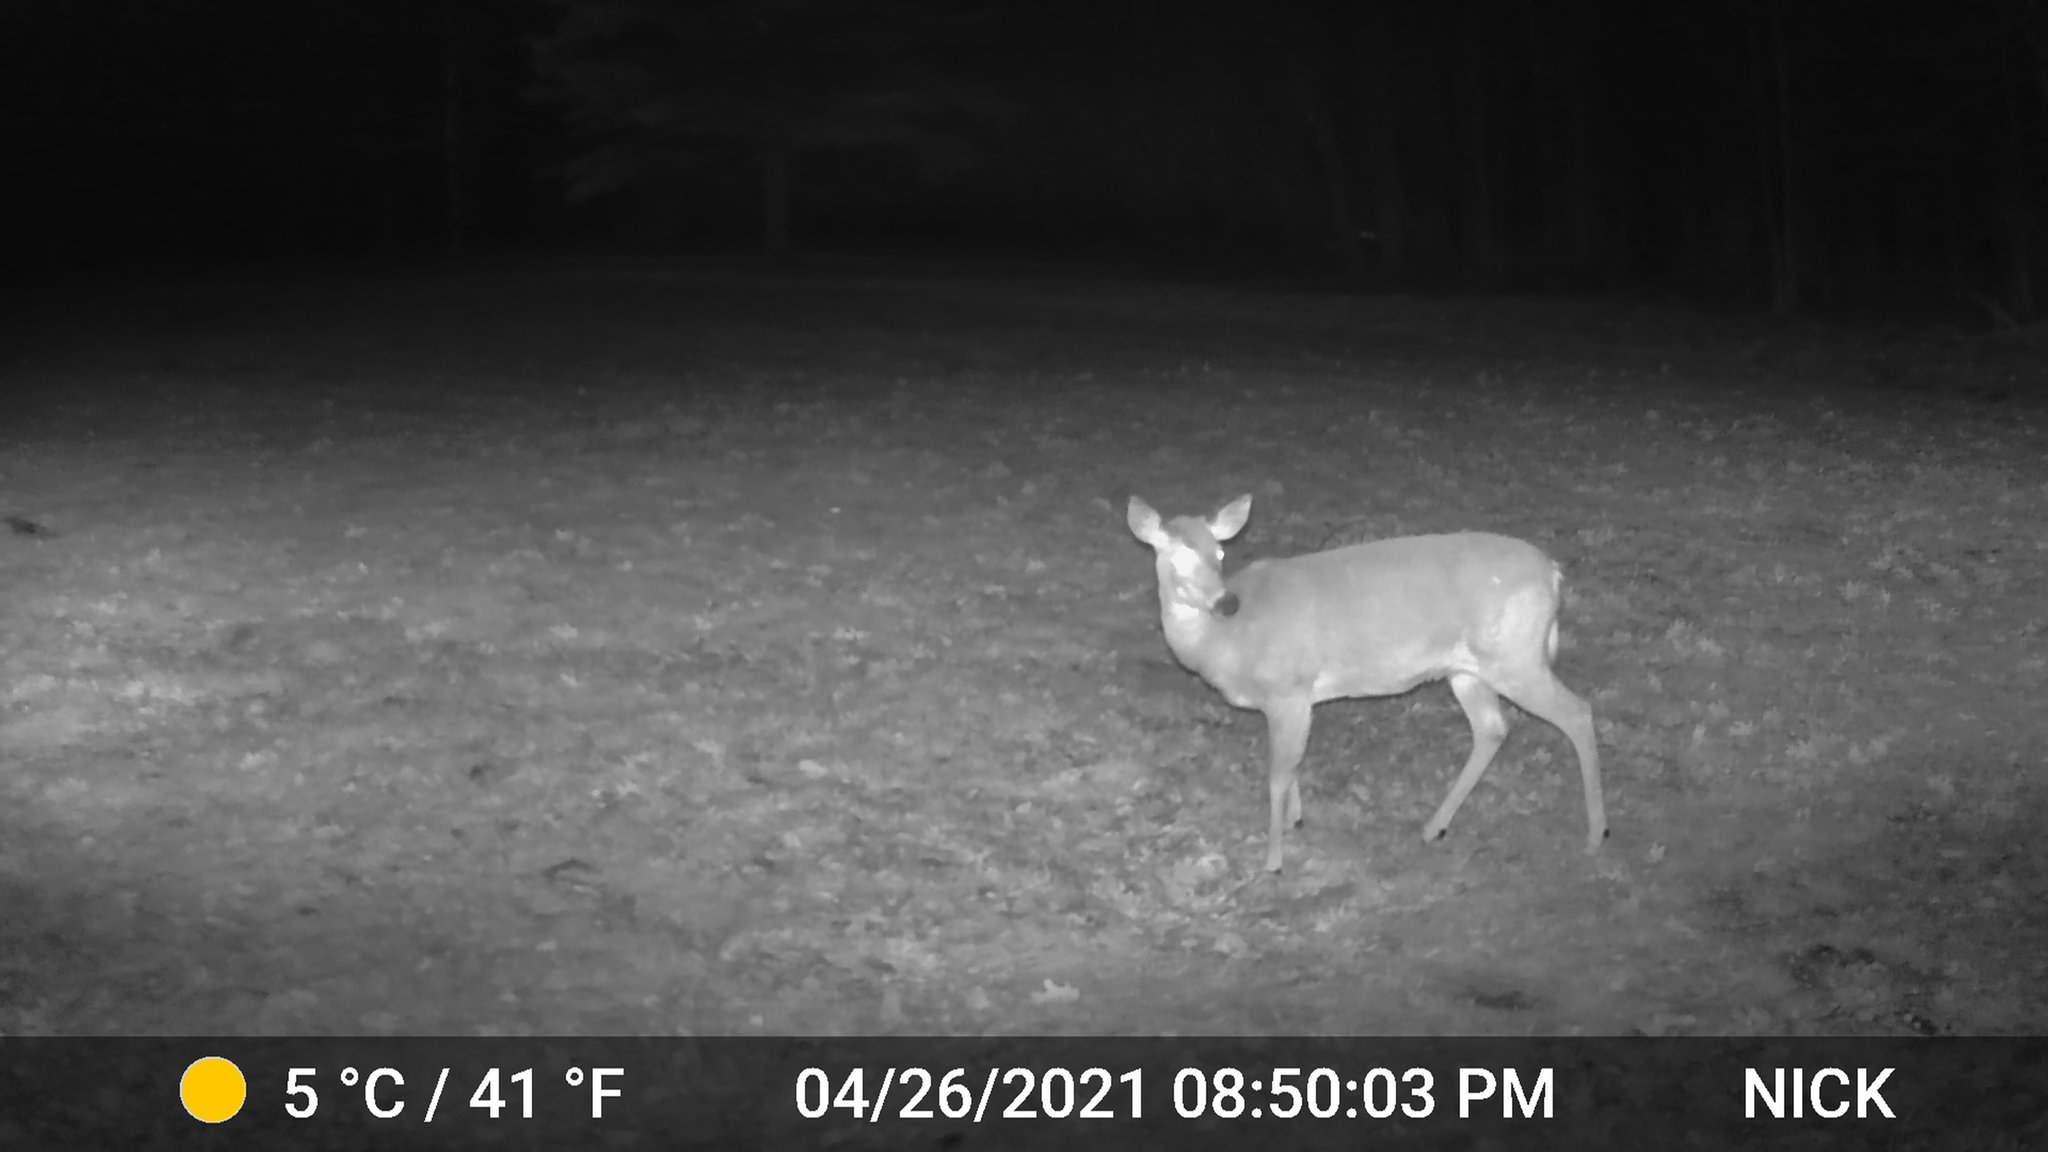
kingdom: Animalia
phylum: Chordata
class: Mammalia
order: Artiodactyla
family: Cervidae
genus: Odocoileus
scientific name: Odocoileus virginianus
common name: White-tailed deer
